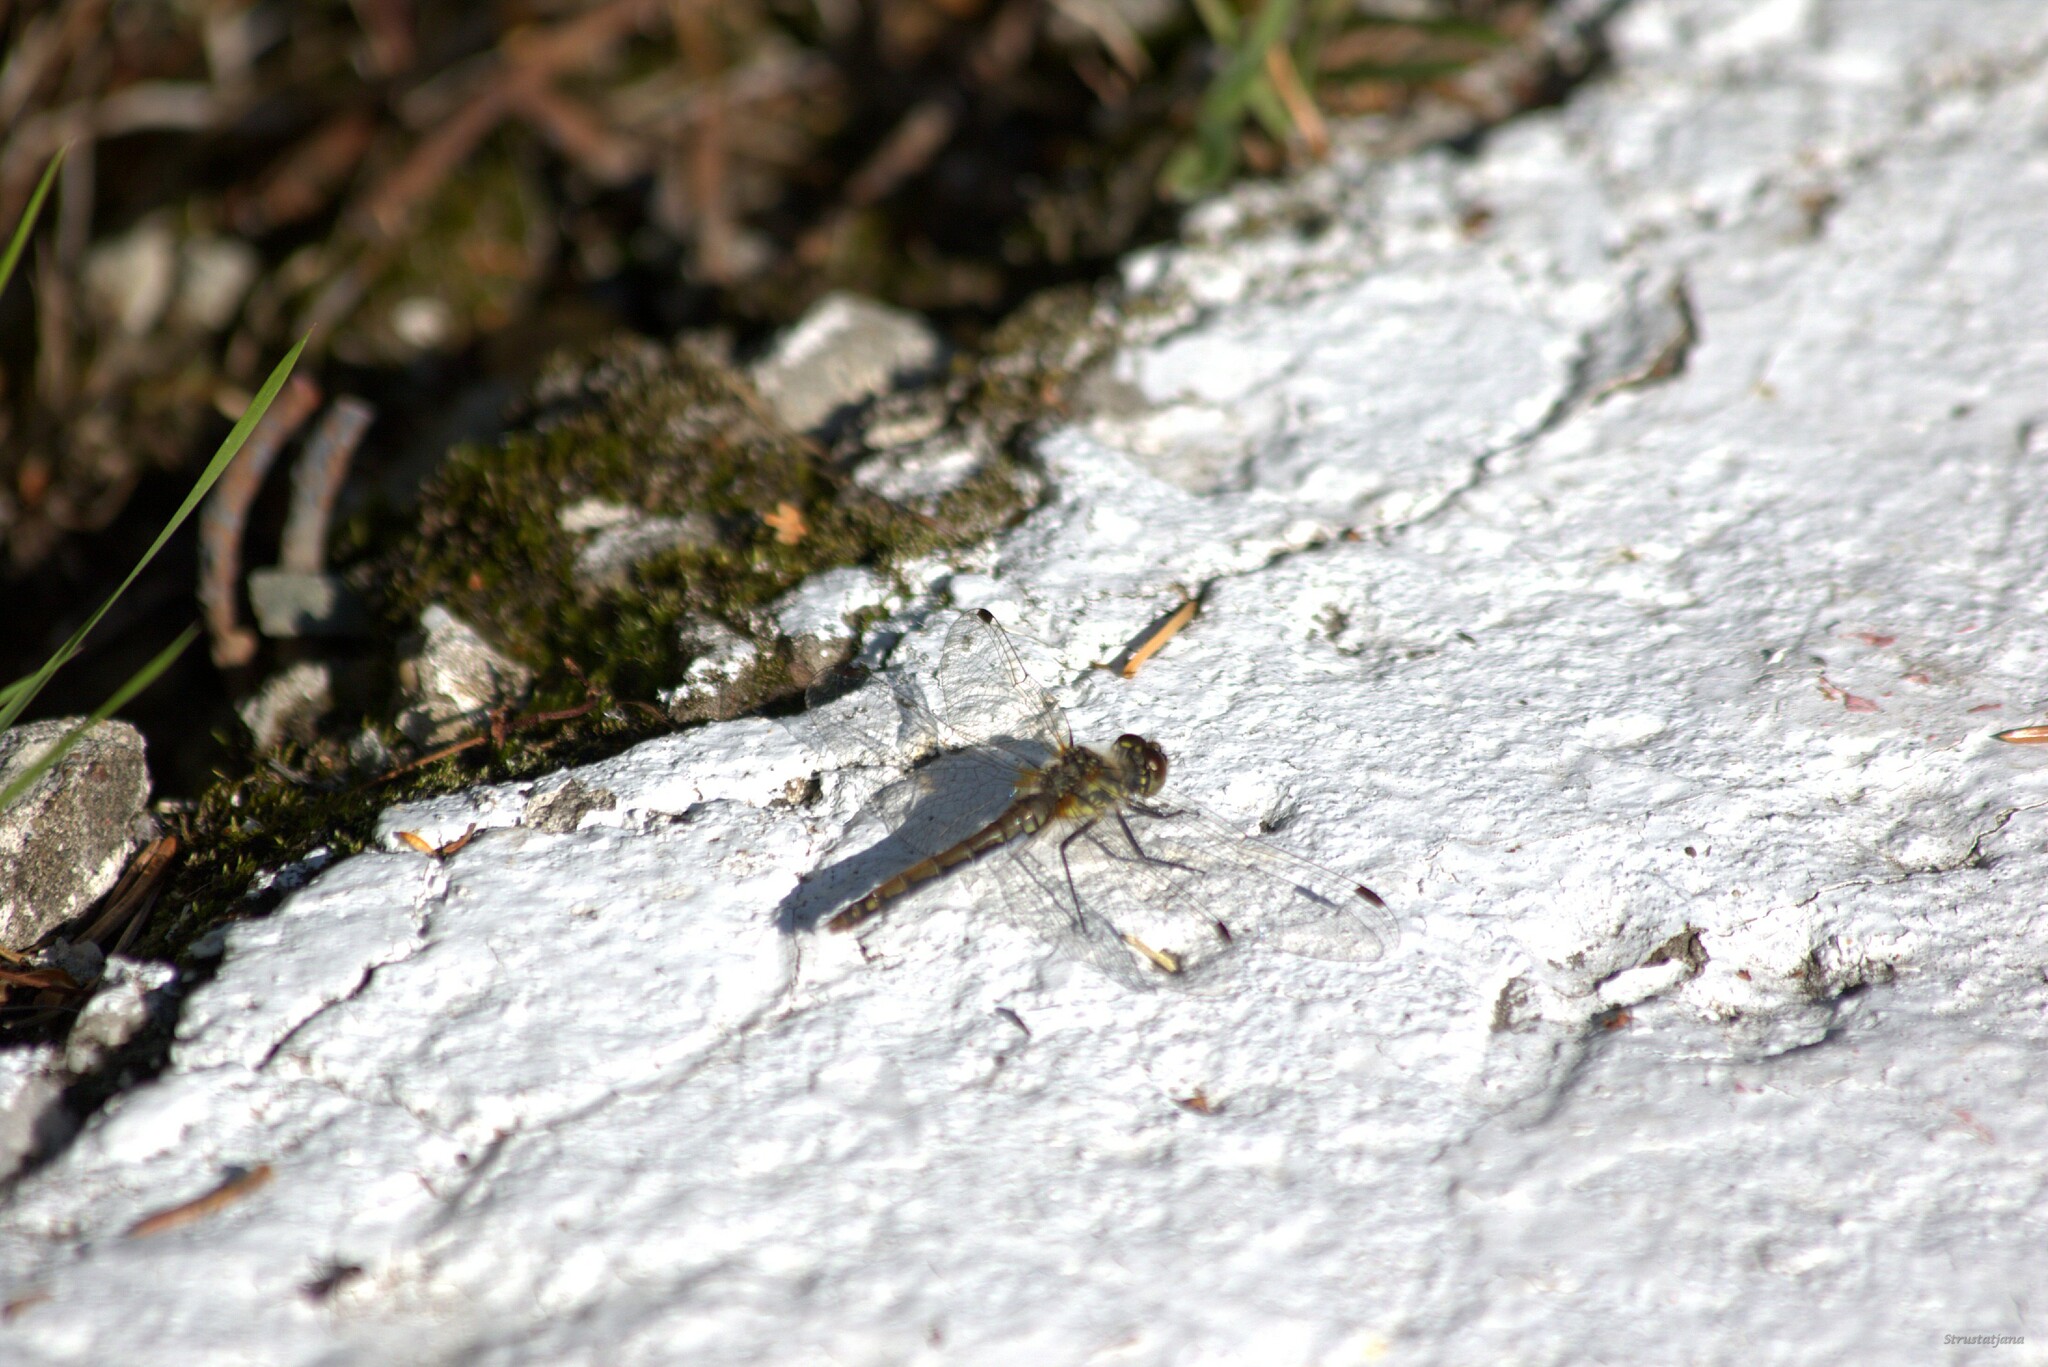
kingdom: Animalia
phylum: Arthropoda
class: Insecta
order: Odonata
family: Libellulidae
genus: Sympetrum
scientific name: Sympetrum danae
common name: Black darter
